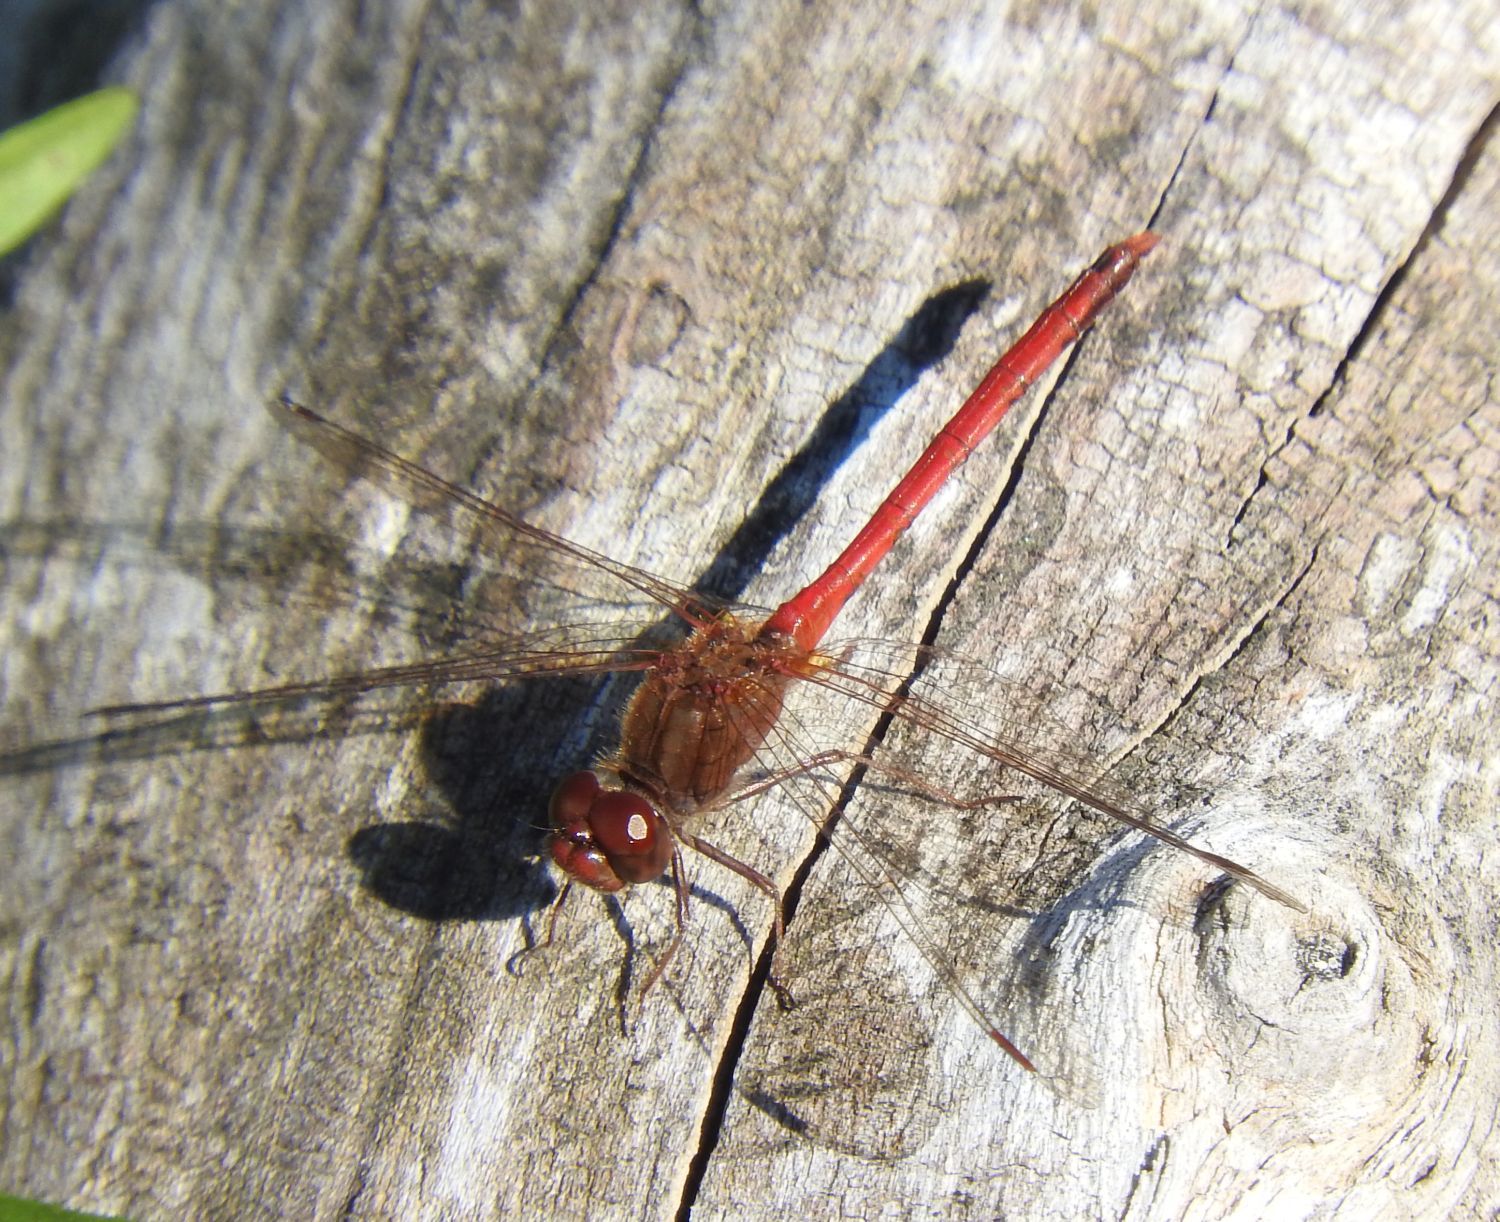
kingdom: Animalia
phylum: Arthropoda
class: Insecta
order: Odonata
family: Libellulidae
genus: Sympetrum
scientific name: Sympetrum vicinum
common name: Autumn meadowhawk
